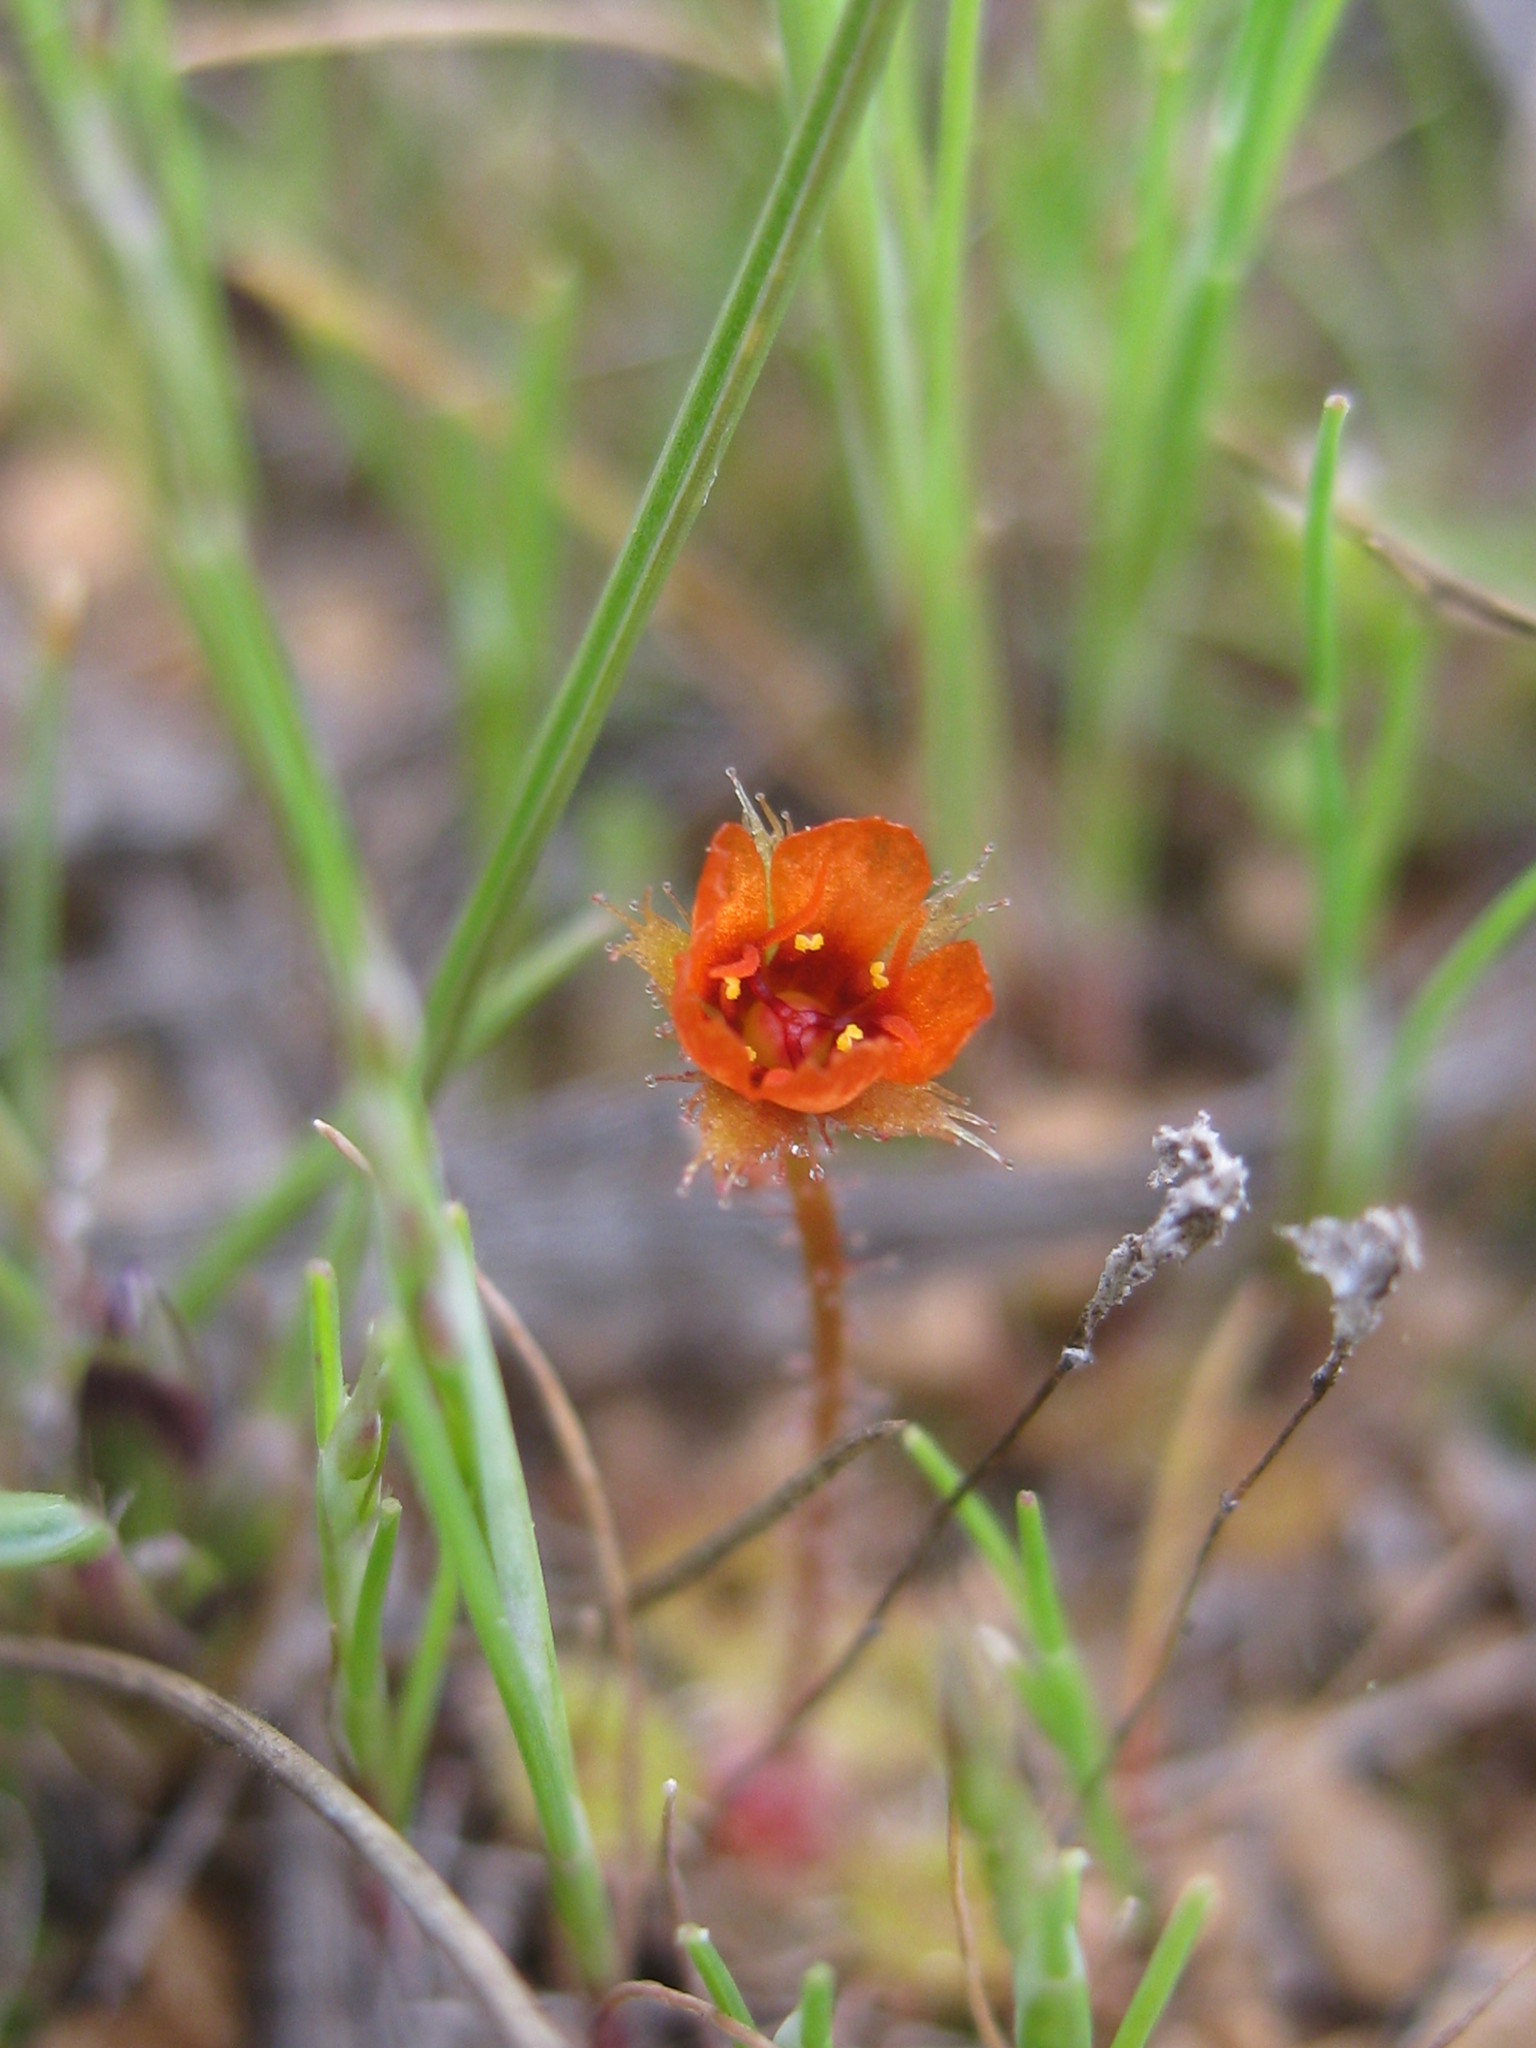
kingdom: Plantae
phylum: Tracheophyta
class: Magnoliopsida
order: Caryophyllales
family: Droseraceae
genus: Drosera
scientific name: Drosera glanduligera
